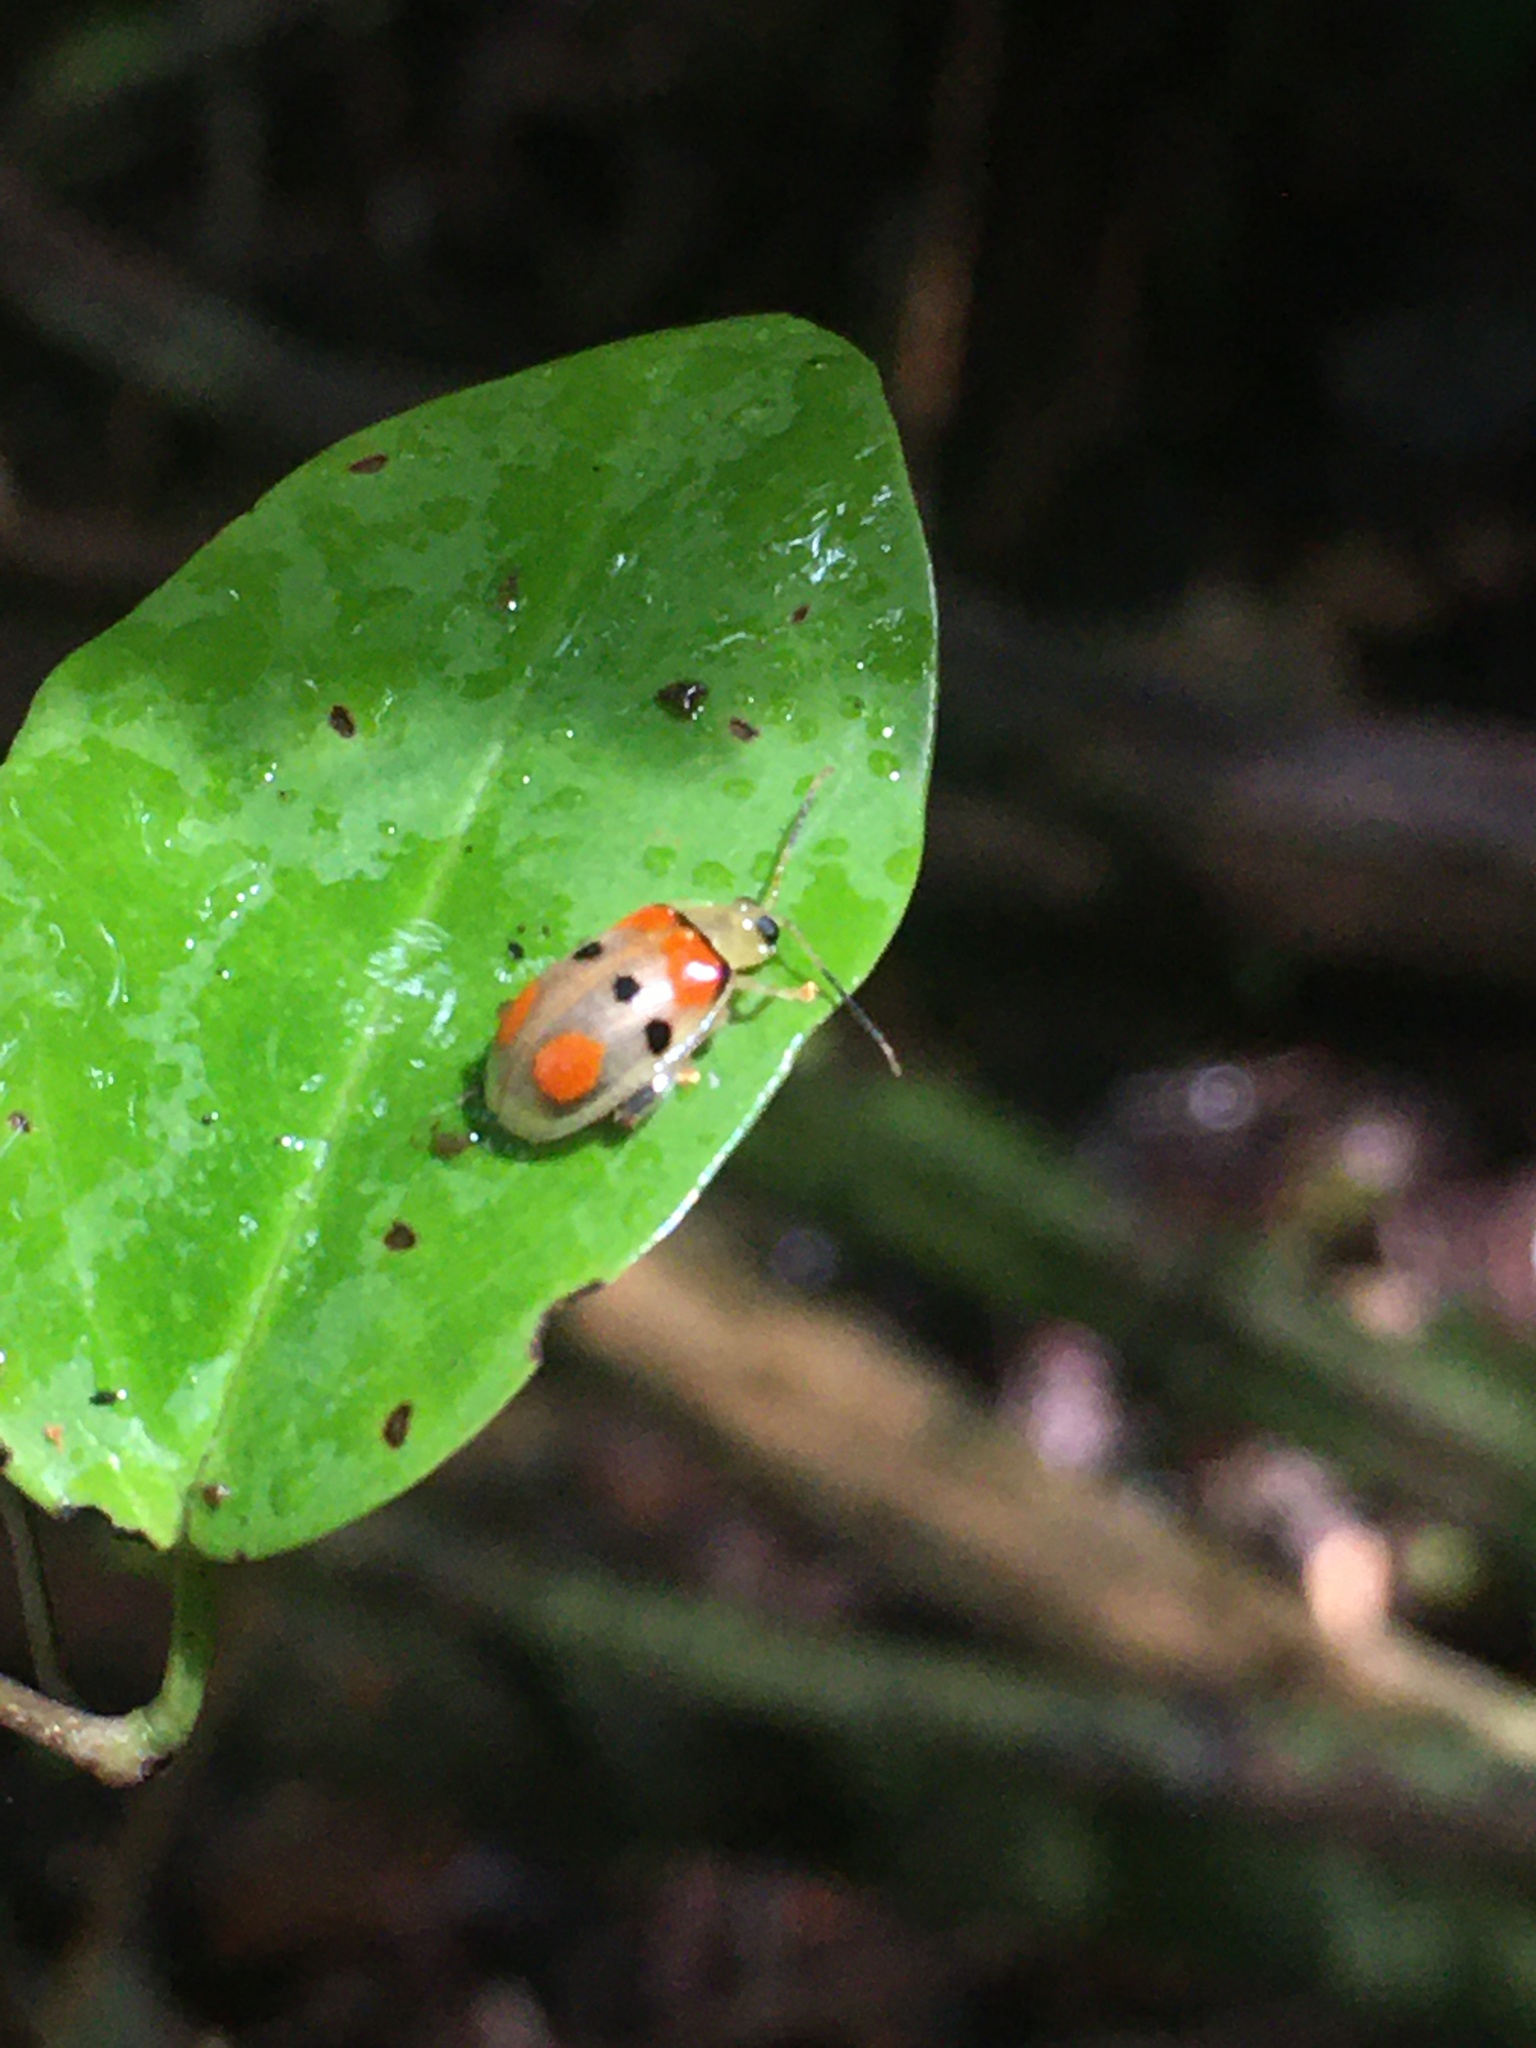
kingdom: Animalia
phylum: Arthropoda
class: Insecta
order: Coleoptera
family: Chrysomelidae
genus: Walterianella
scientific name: Walterianella
